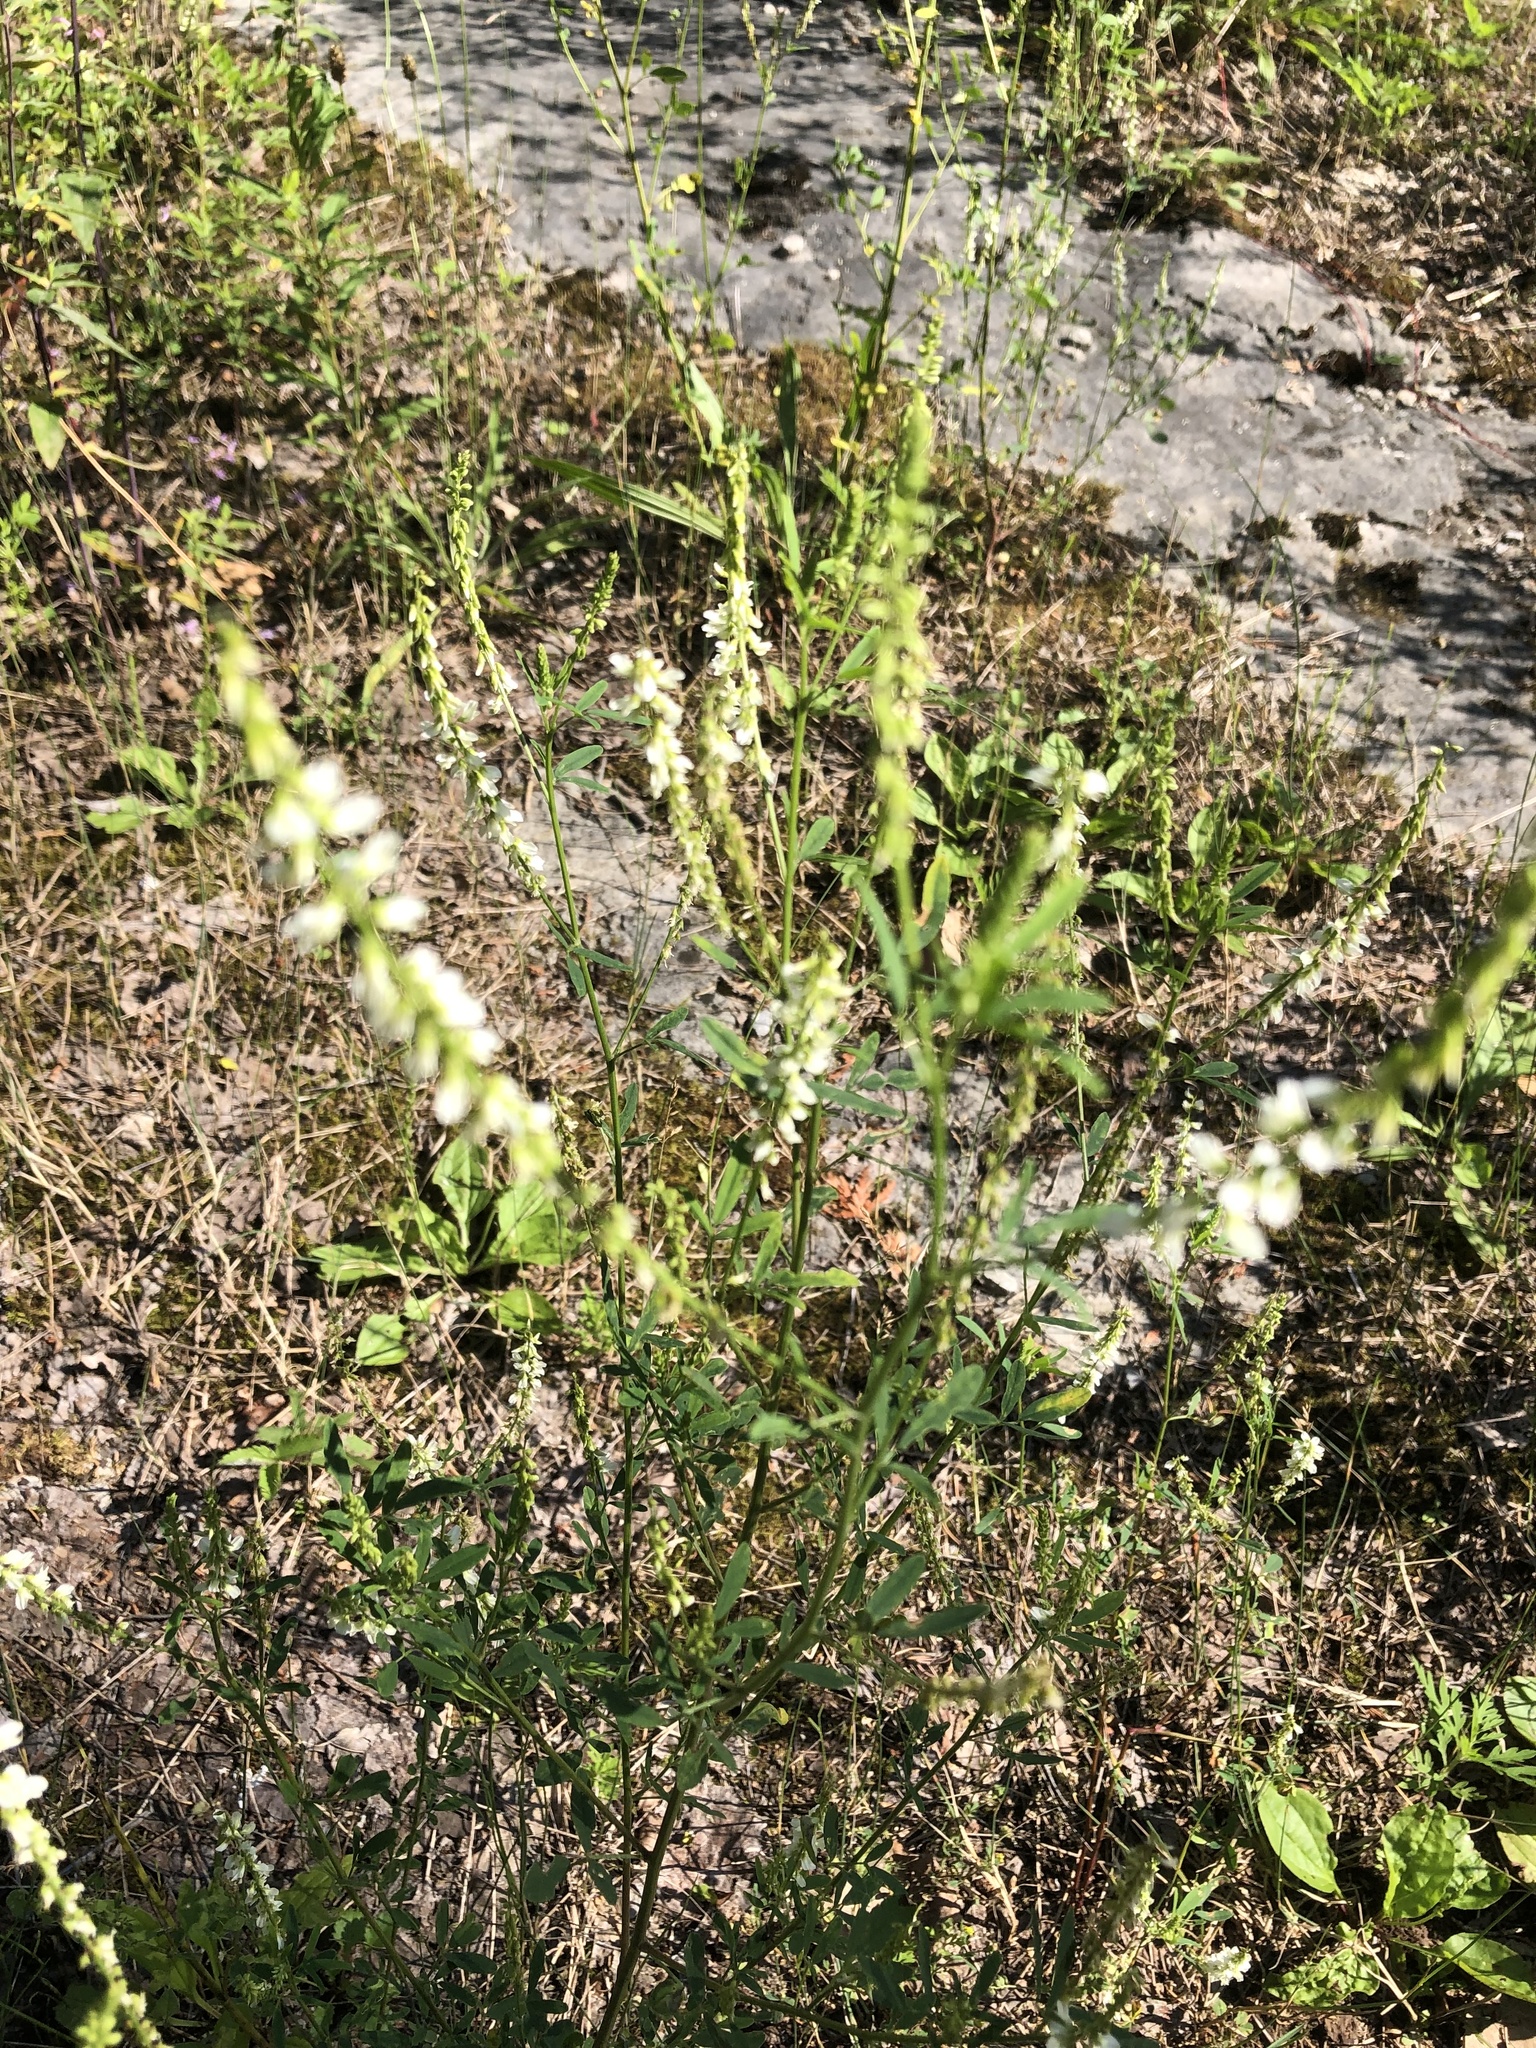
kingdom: Plantae
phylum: Tracheophyta
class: Magnoliopsida
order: Fabales
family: Fabaceae
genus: Melilotus
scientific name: Melilotus albus
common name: White melilot
